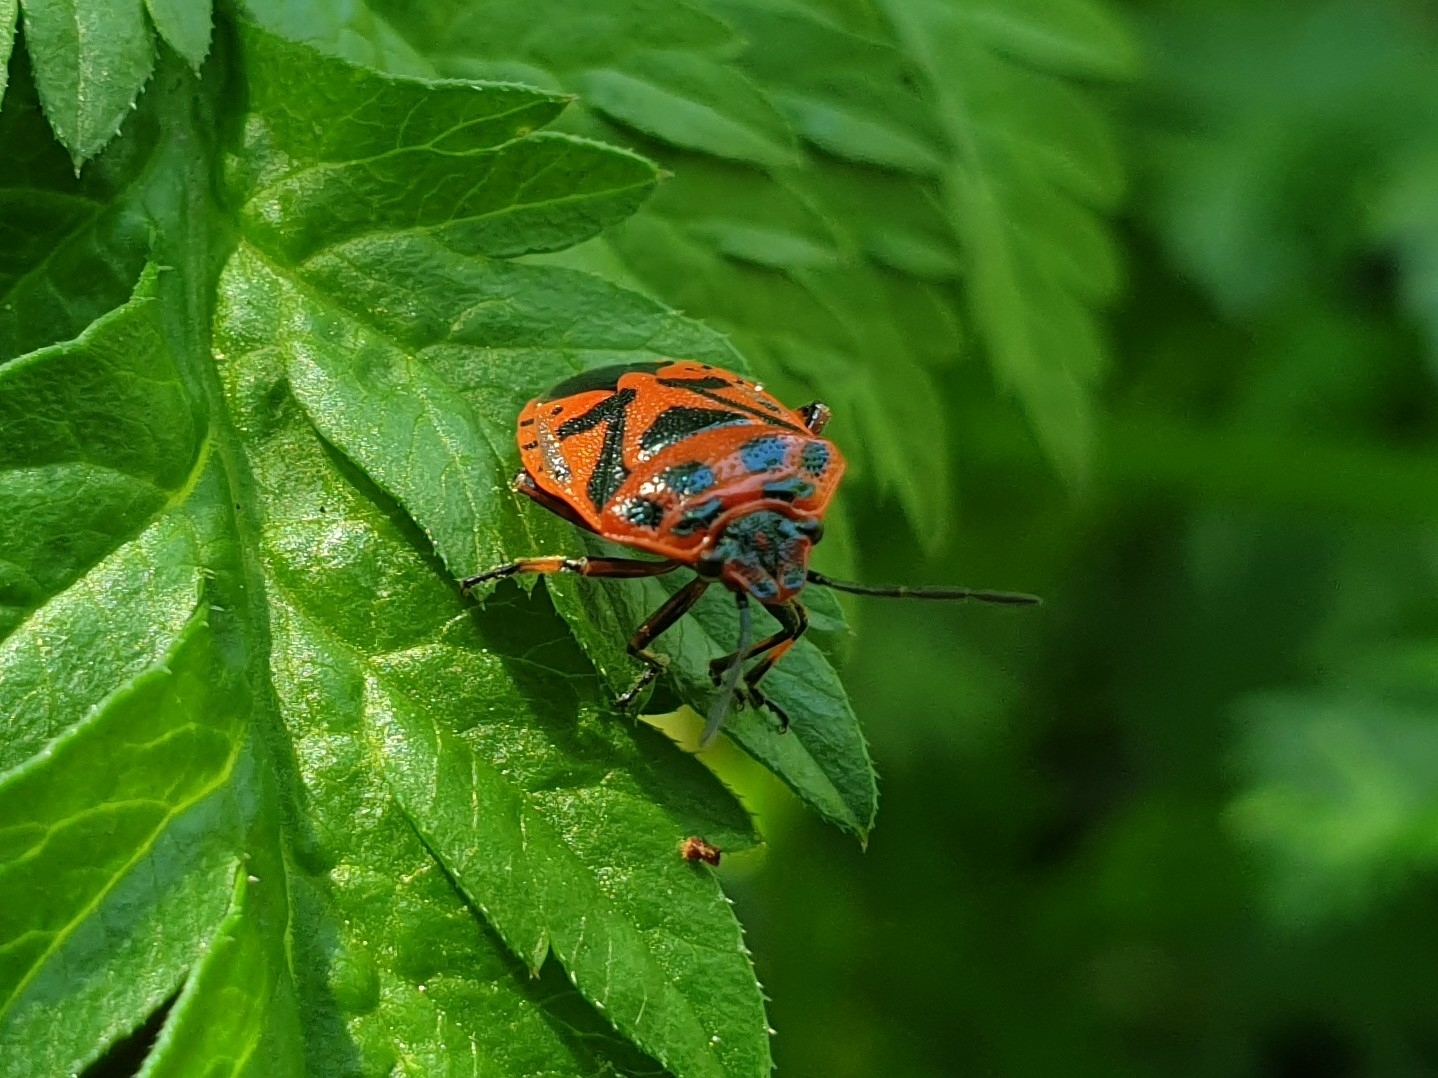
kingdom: Animalia
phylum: Arthropoda
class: Insecta
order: Hemiptera
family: Pentatomidae
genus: Eurydema
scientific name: Eurydema ornata
